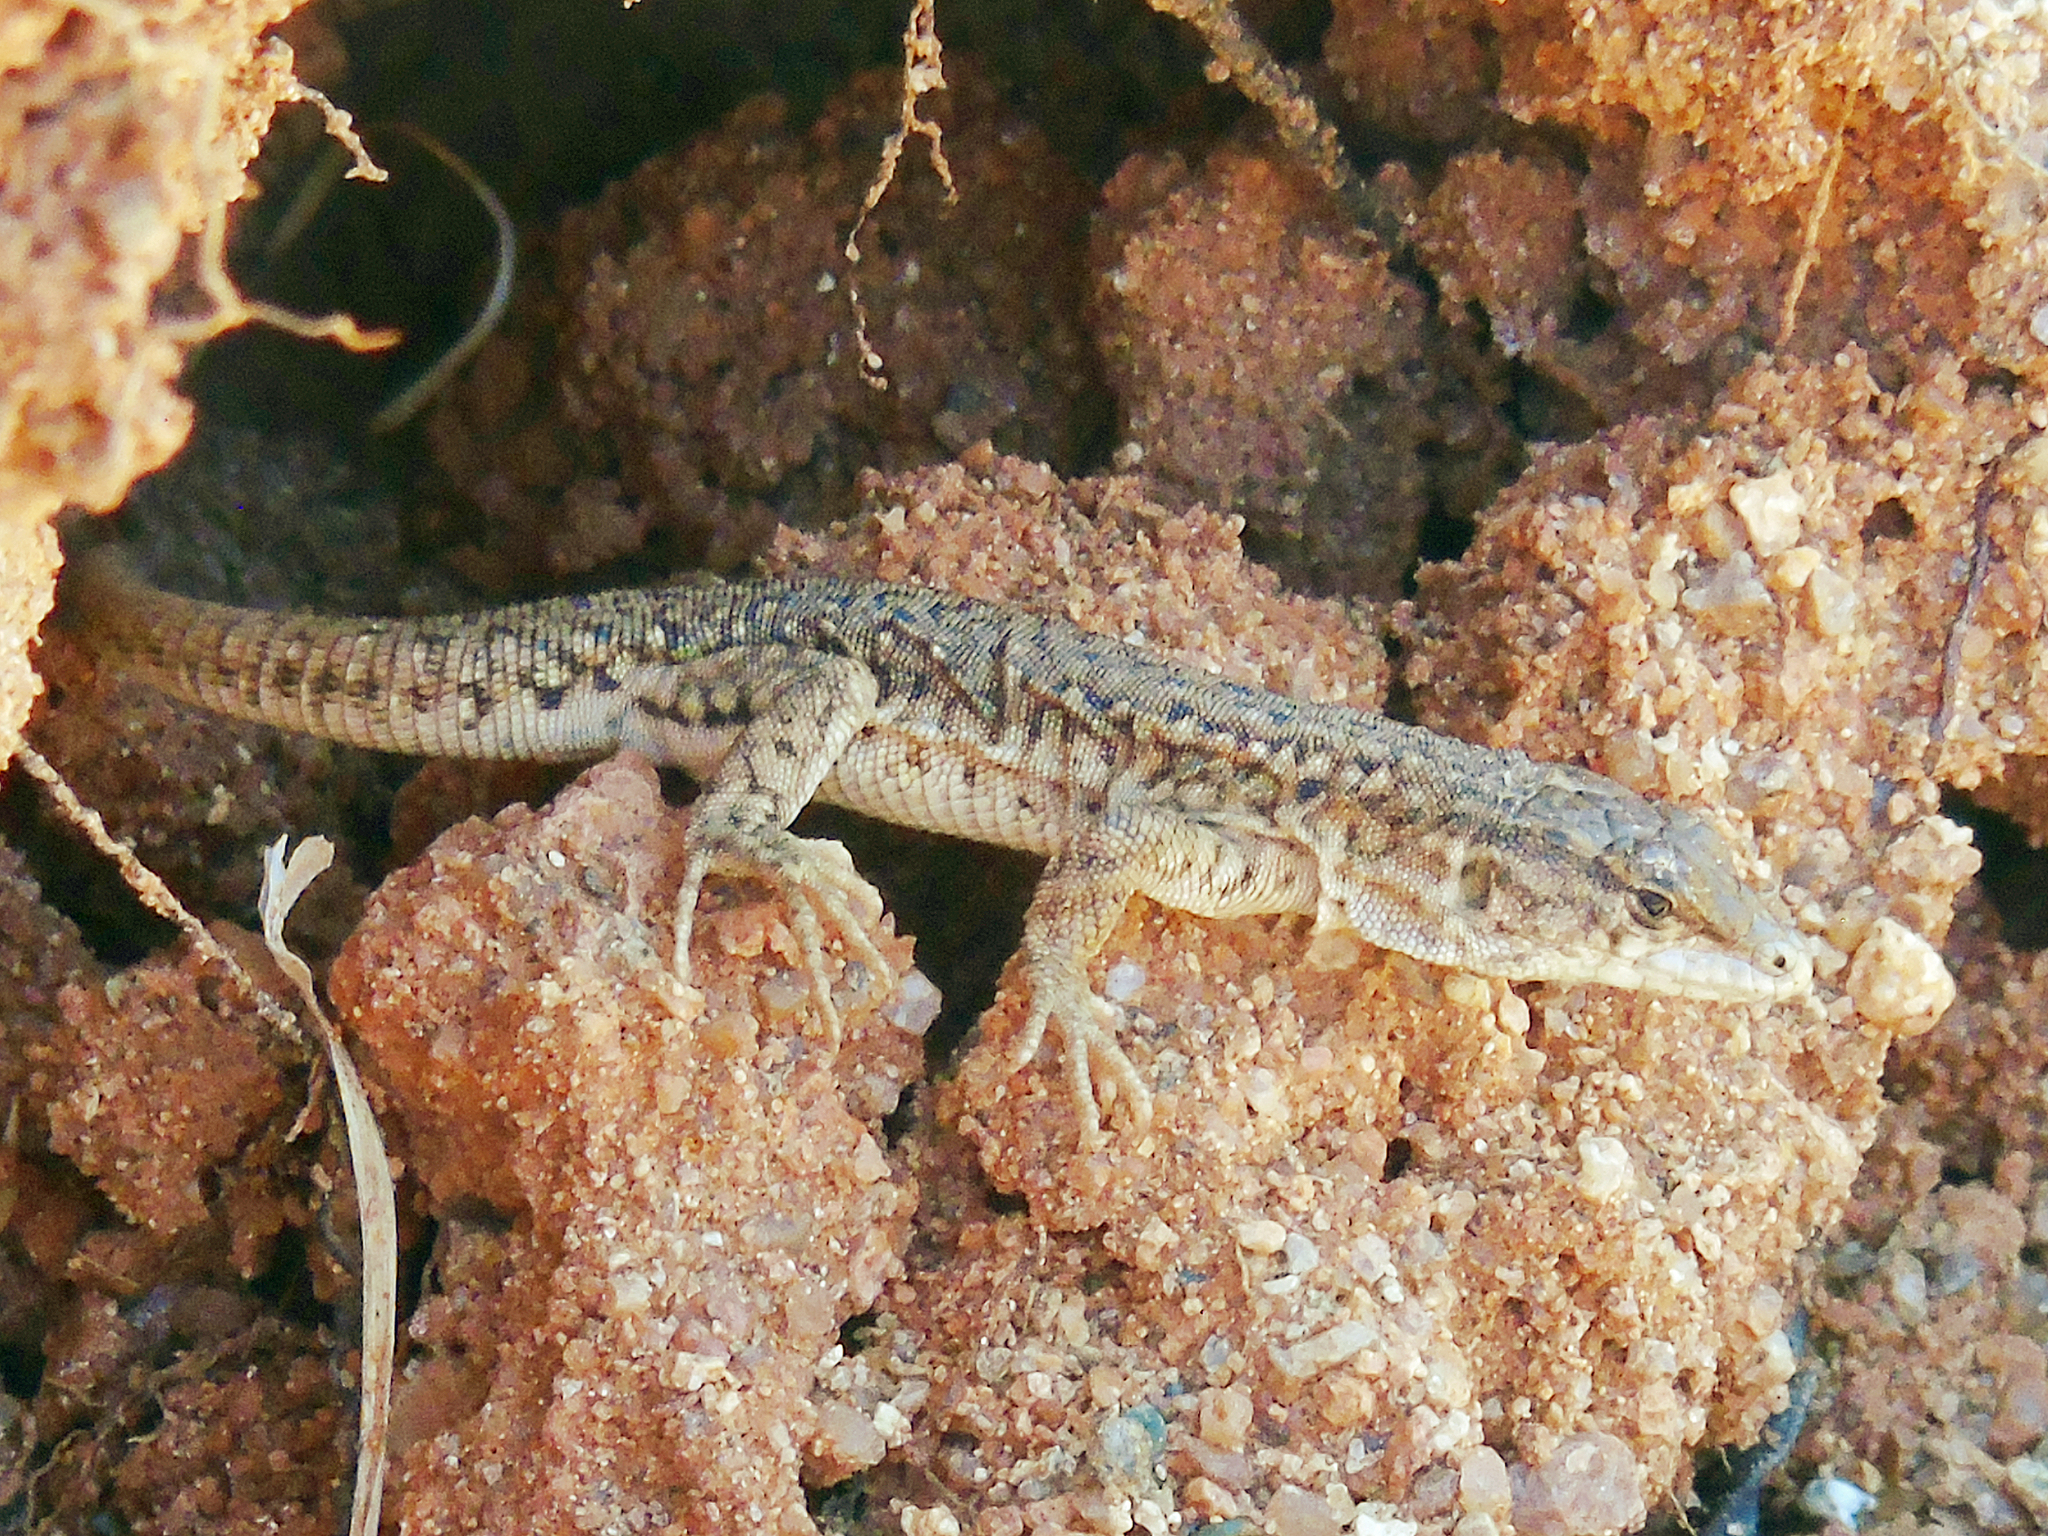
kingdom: Animalia
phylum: Chordata
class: Squamata
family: Lacertidae
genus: Eremias
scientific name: Eremias stummeri
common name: Stummer’s racerunner
